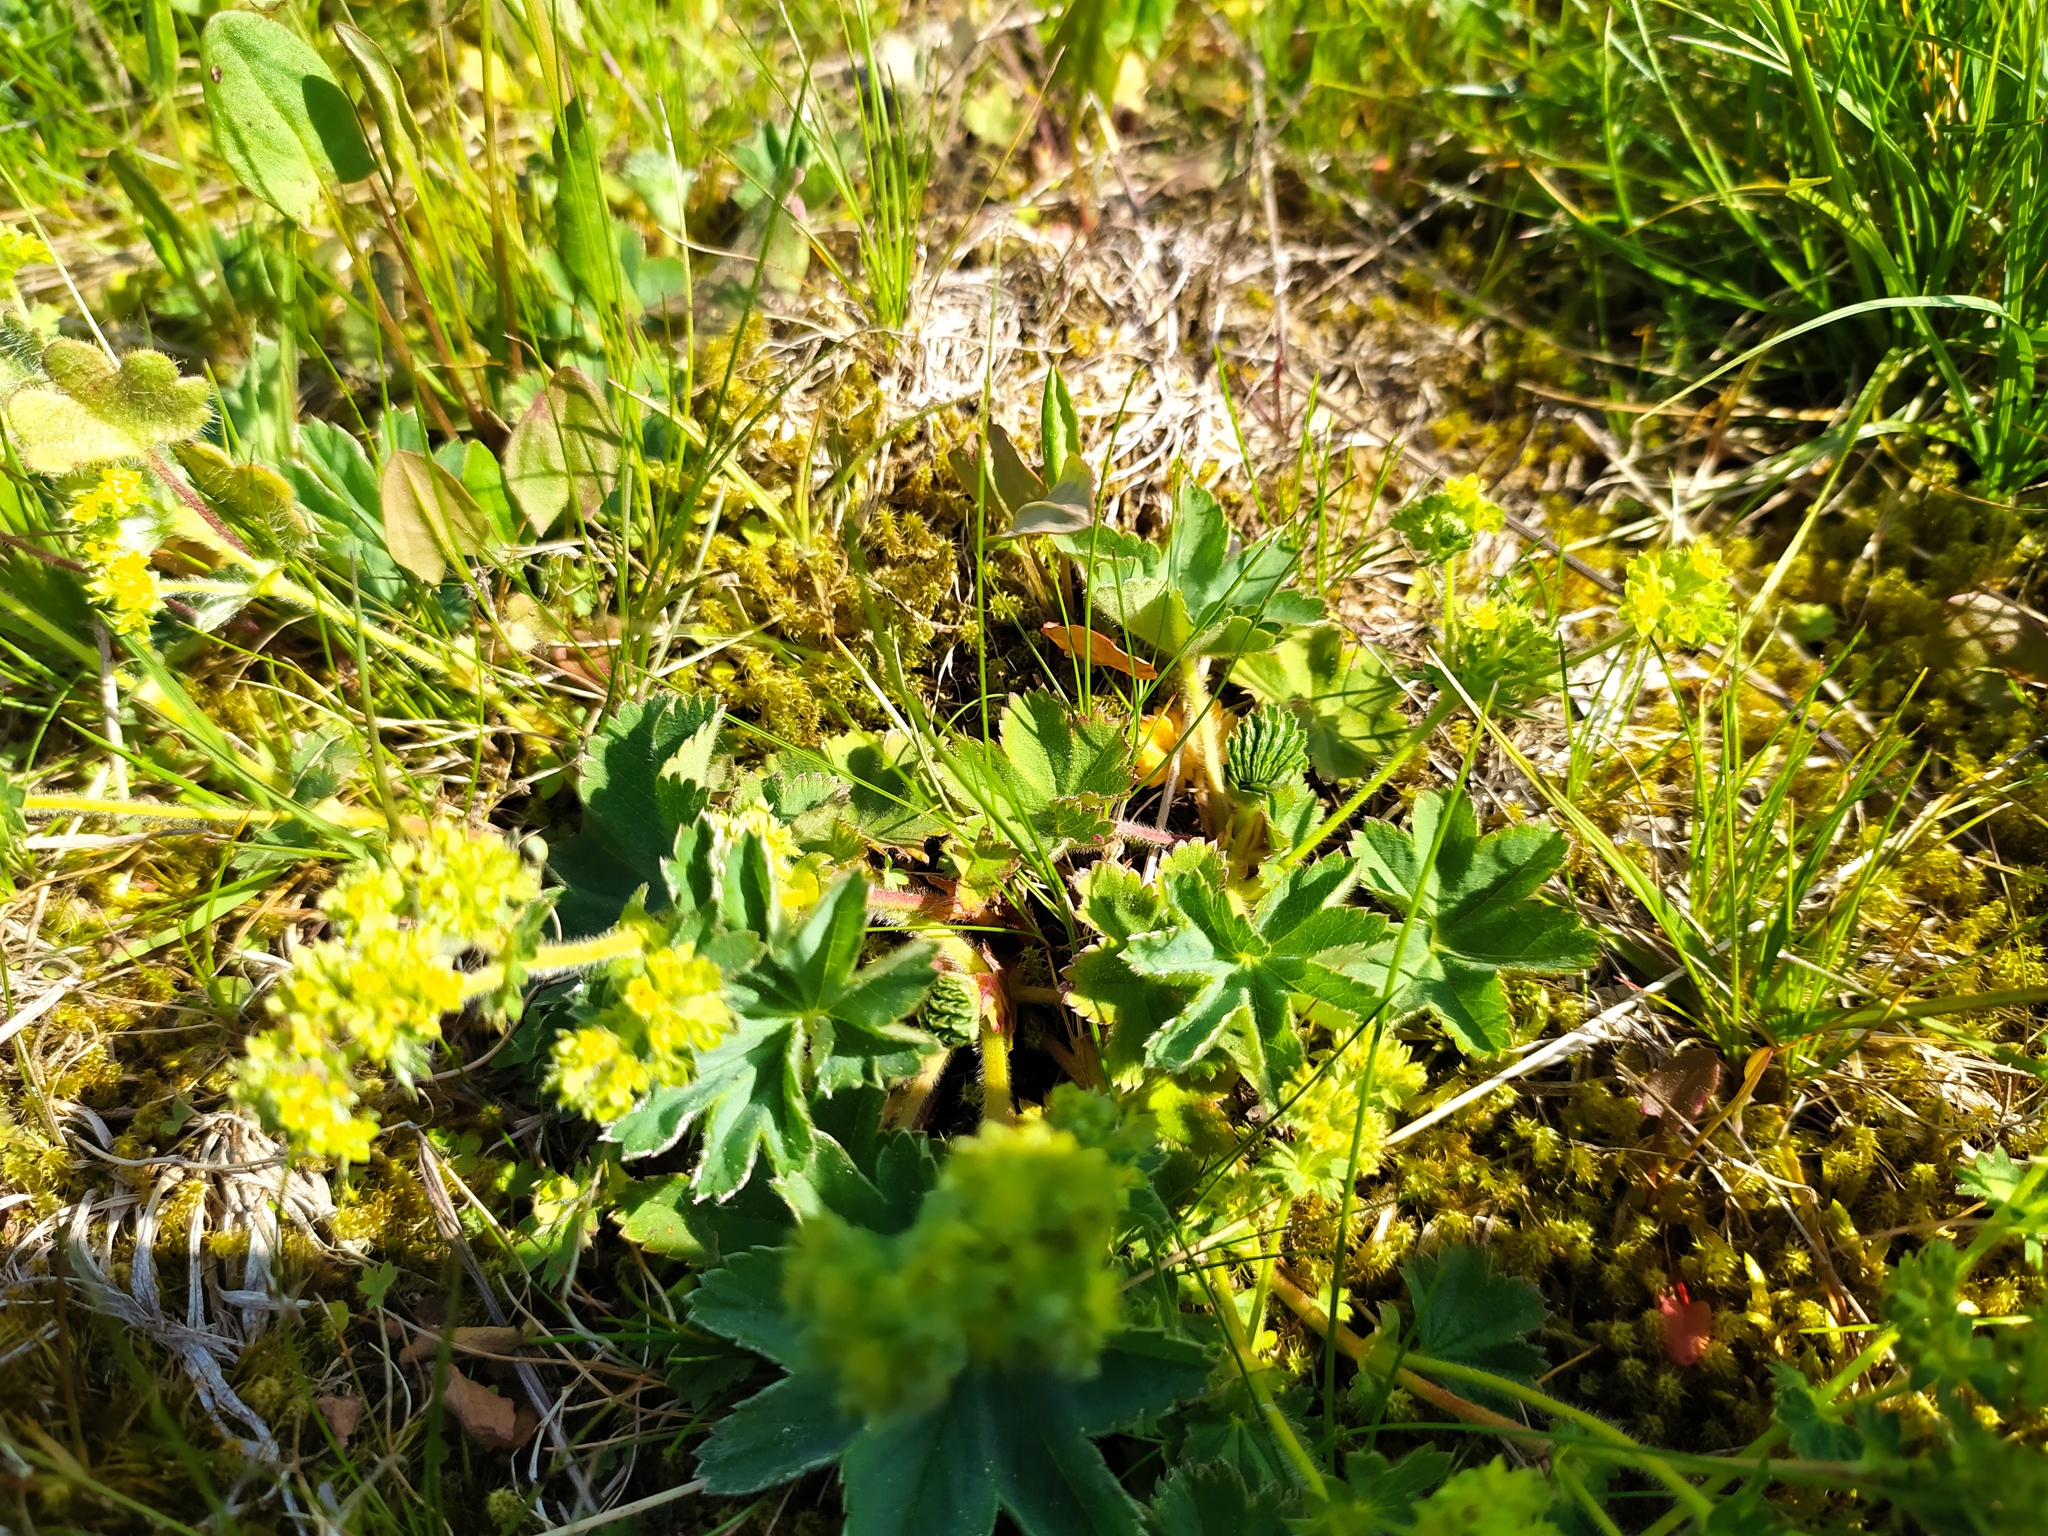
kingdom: Plantae
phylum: Tracheophyta
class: Magnoliopsida
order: Rosales
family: Rosaceae
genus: Alchemilla
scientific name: Alchemilla glaucescens
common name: Silky lady's mantle
